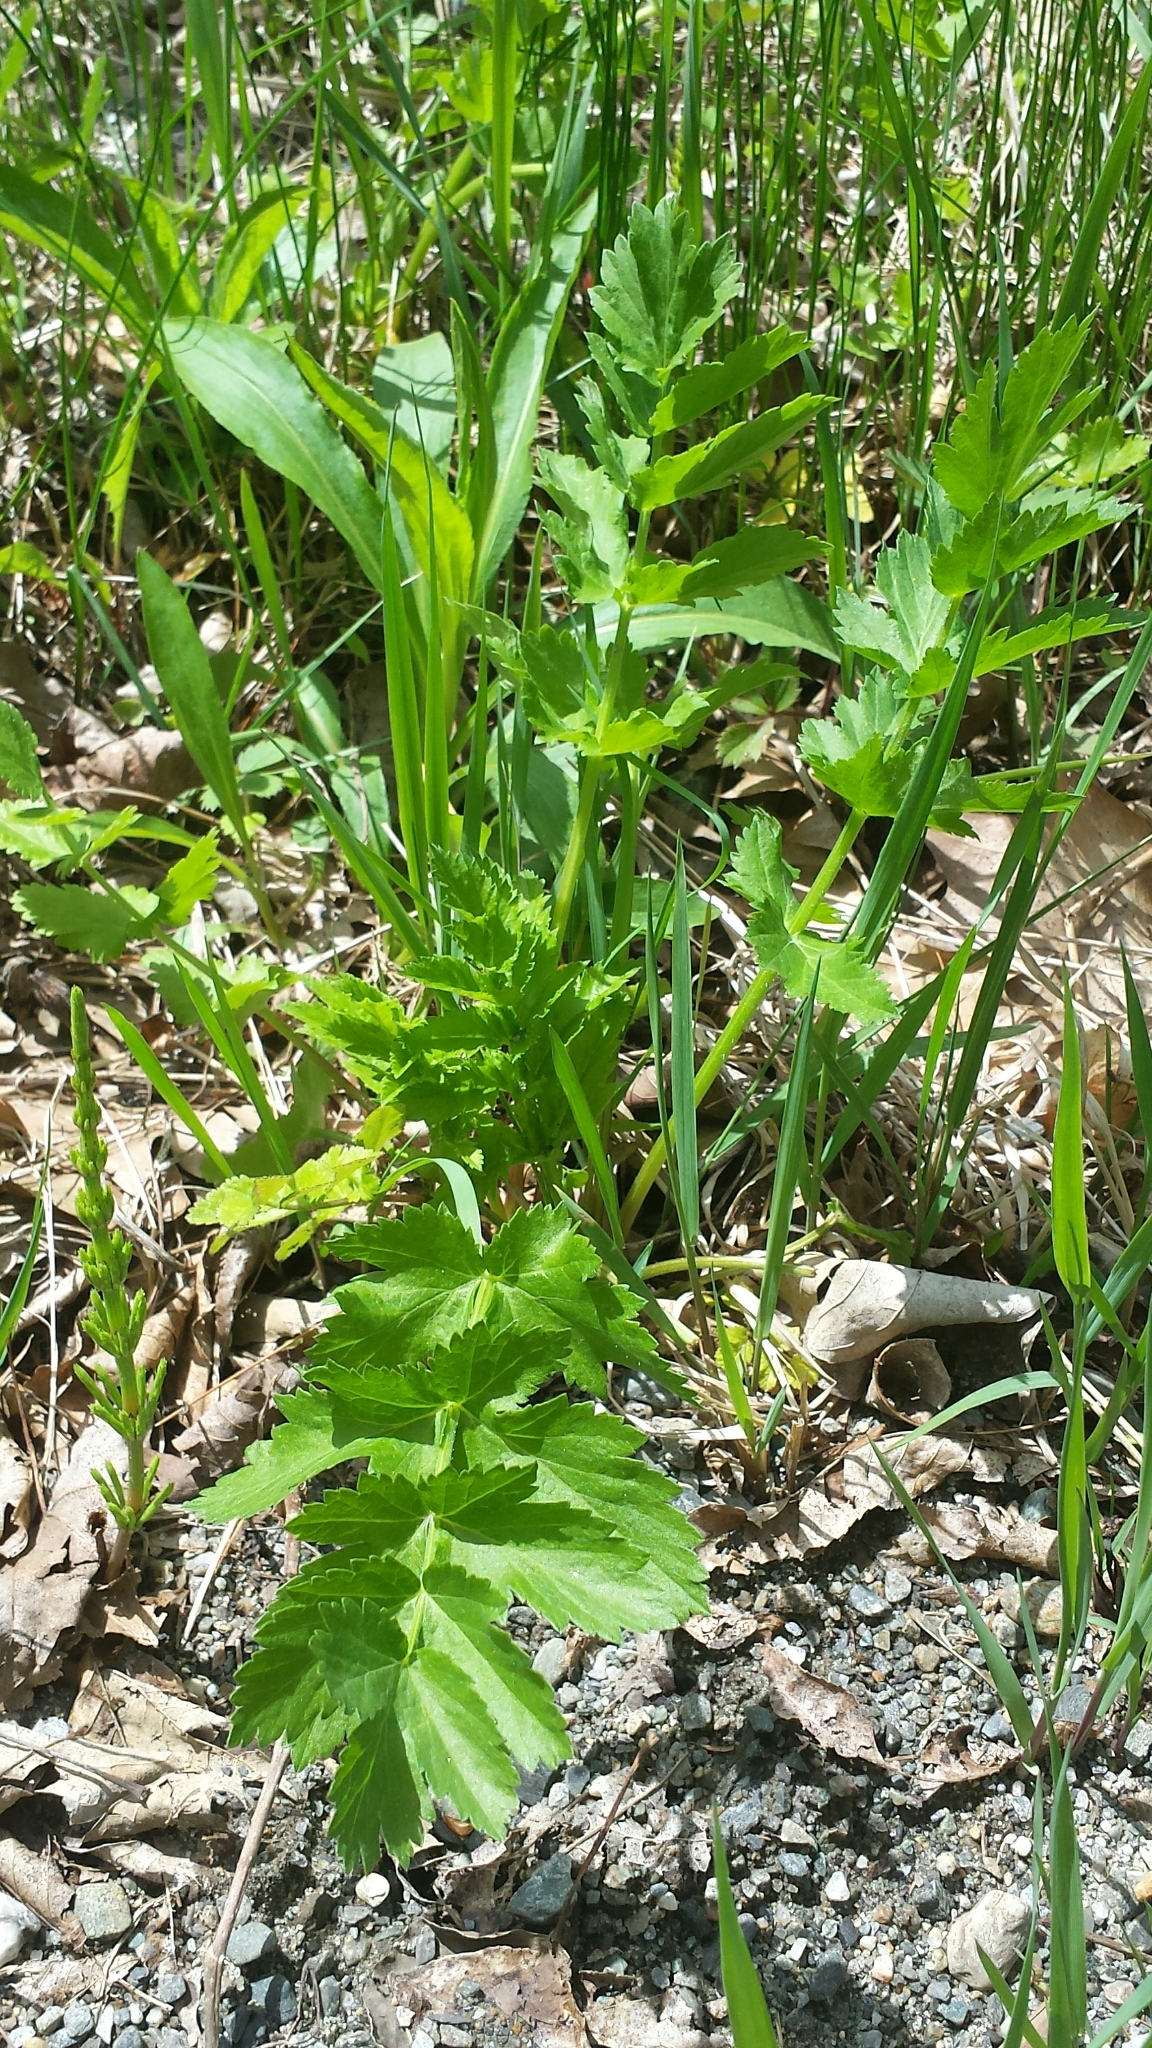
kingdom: Plantae
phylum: Tracheophyta
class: Magnoliopsida
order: Apiales
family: Apiaceae
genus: Pastinaca
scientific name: Pastinaca sativa
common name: Wild parsnip
